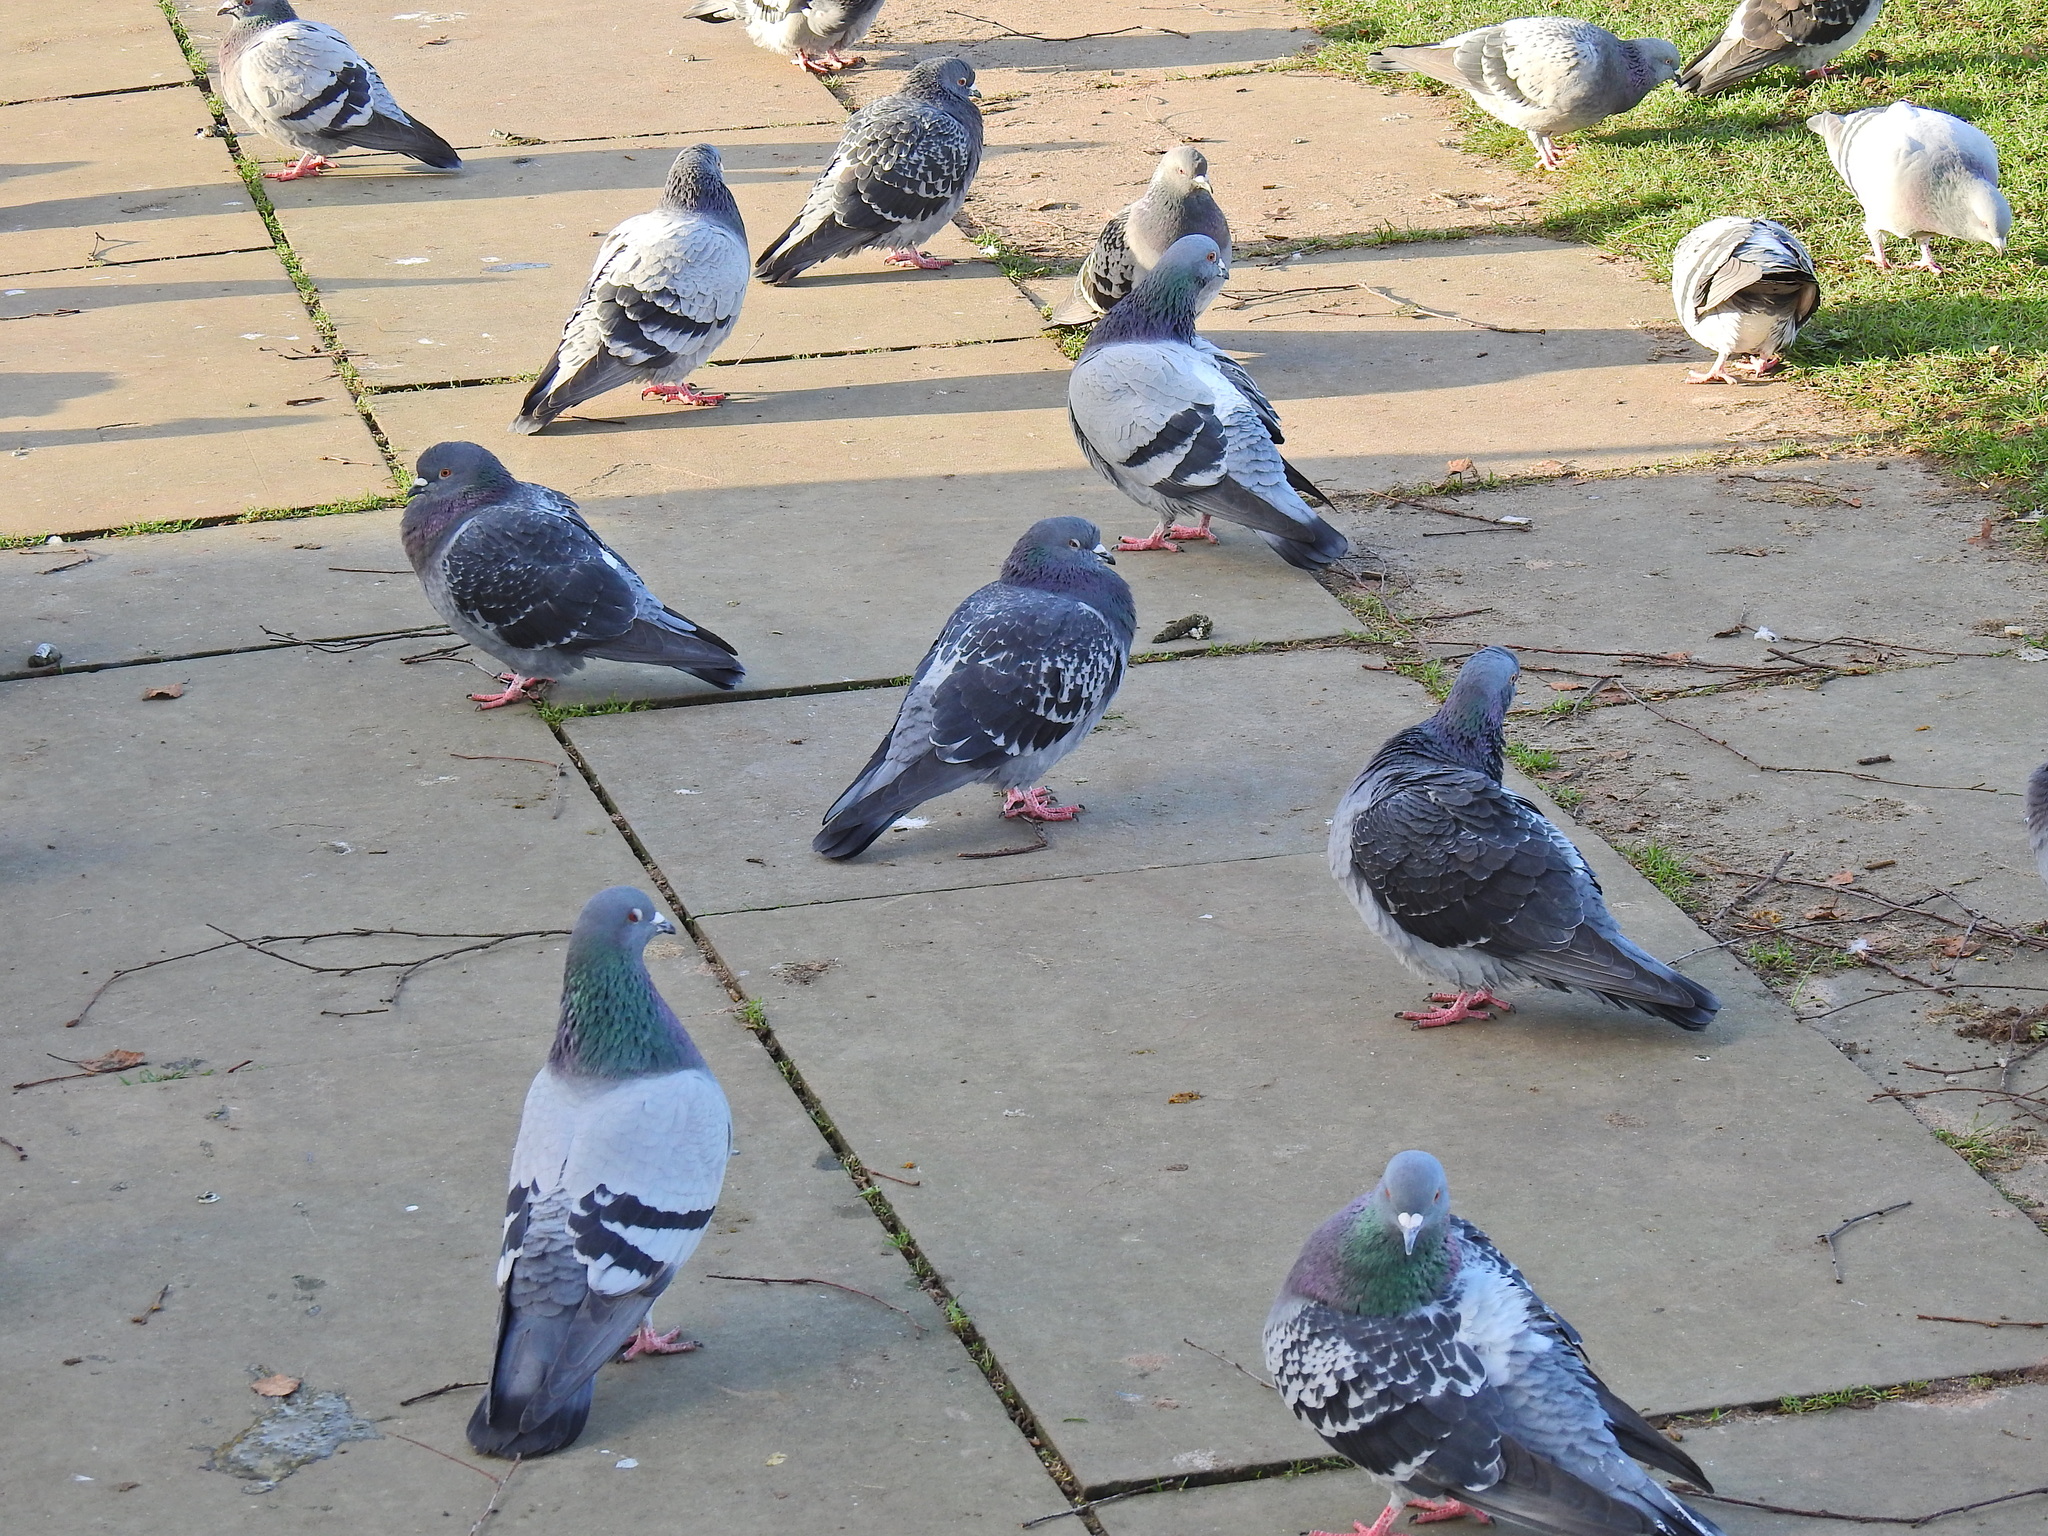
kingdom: Animalia
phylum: Chordata
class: Aves
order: Columbiformes
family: Columbidae
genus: Columba
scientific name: Columba livia
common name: Rock pigeon
